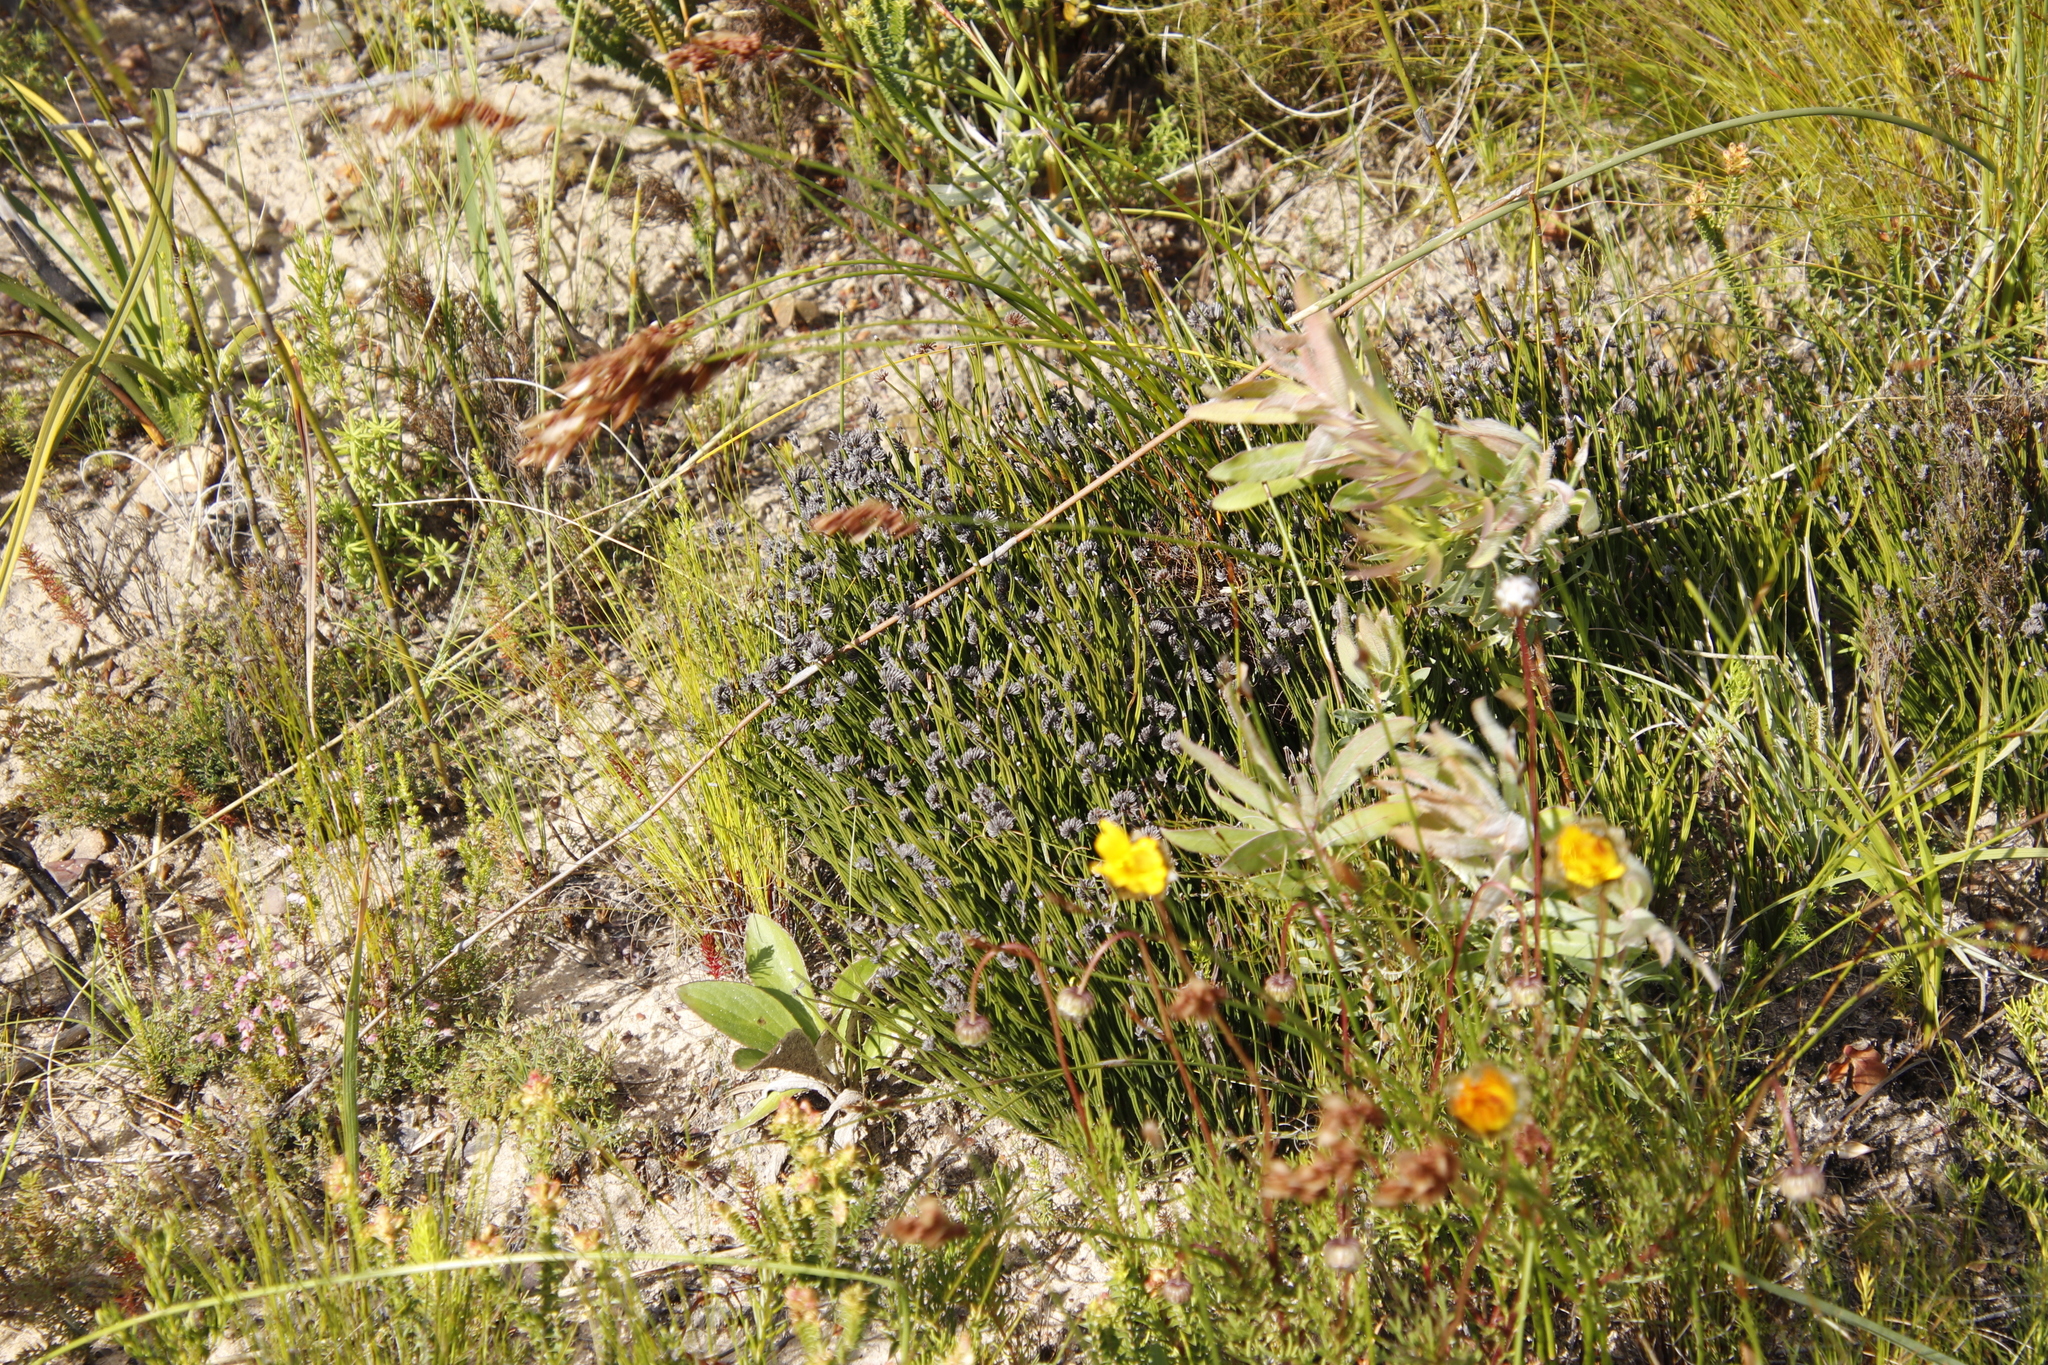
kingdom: Plantae
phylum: Tracheophyta
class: Polypodiopsida
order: Schizaeales
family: Schizaeaceae
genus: Schizaea
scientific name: Schizaea pectinata
